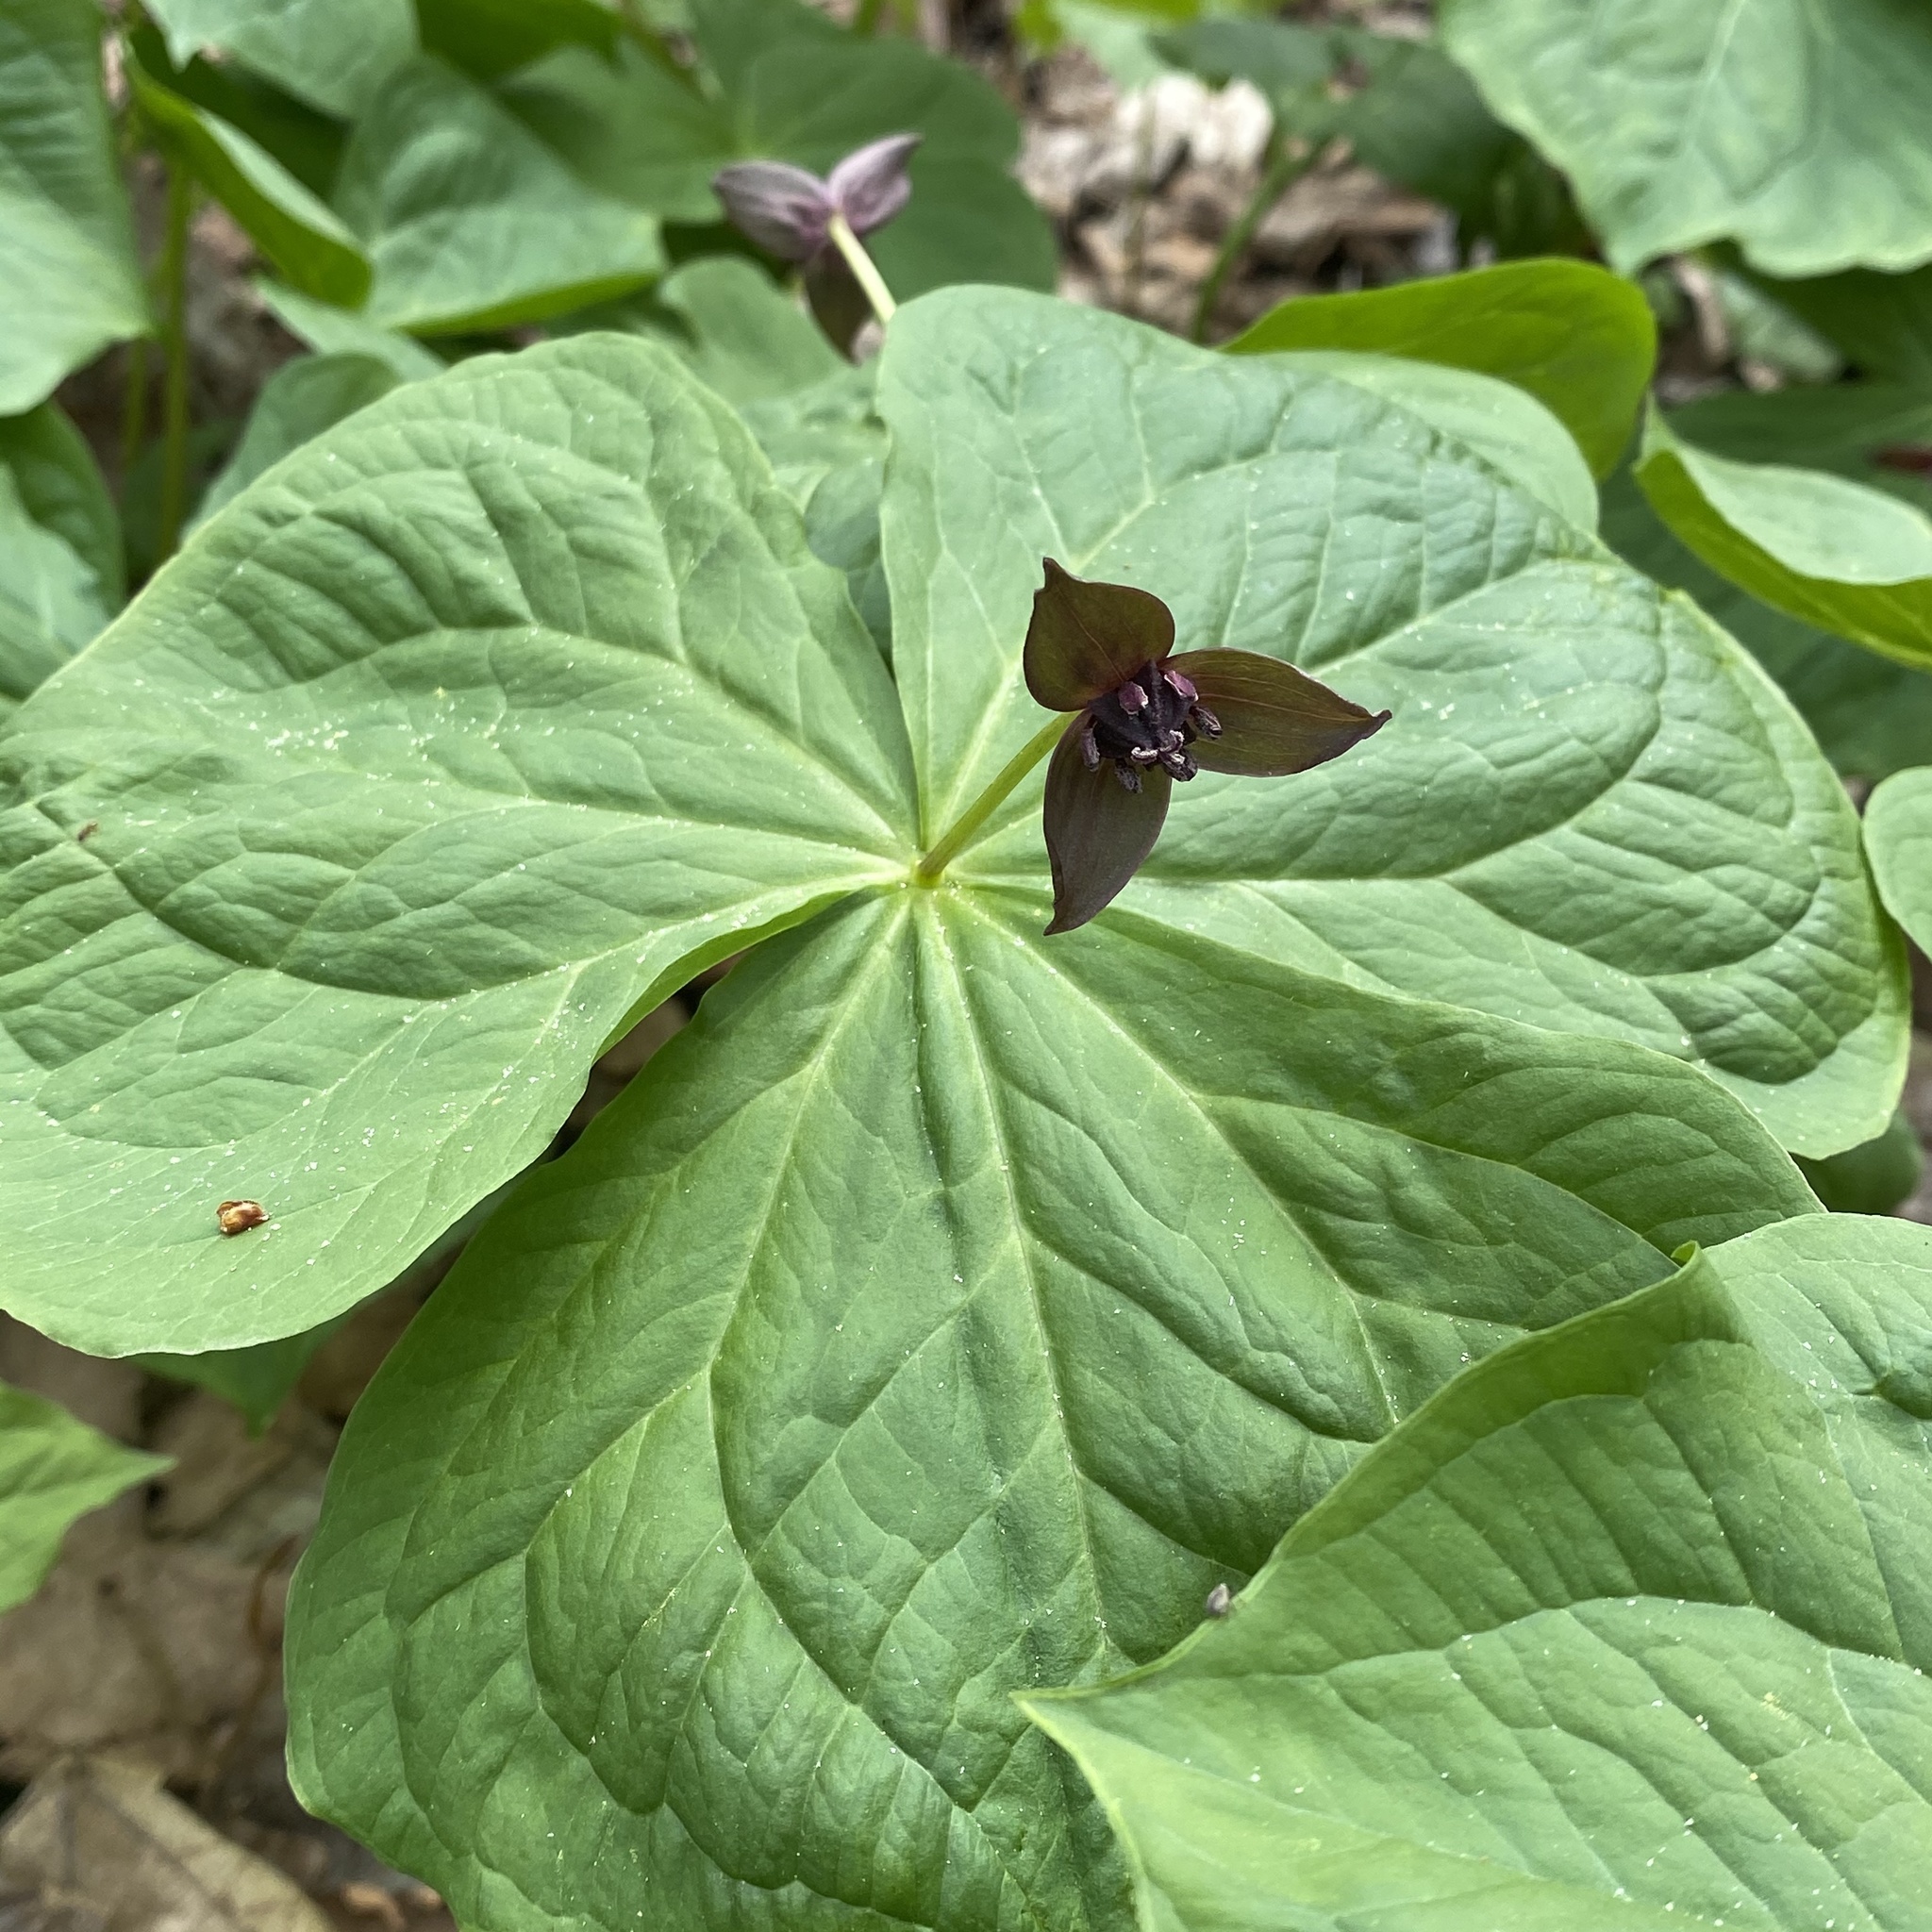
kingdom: Plantae
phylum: Tracheophyta
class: Liliopsida
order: Liliales
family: Melanthiaceae
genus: Trillium
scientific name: Trillium apetalon
